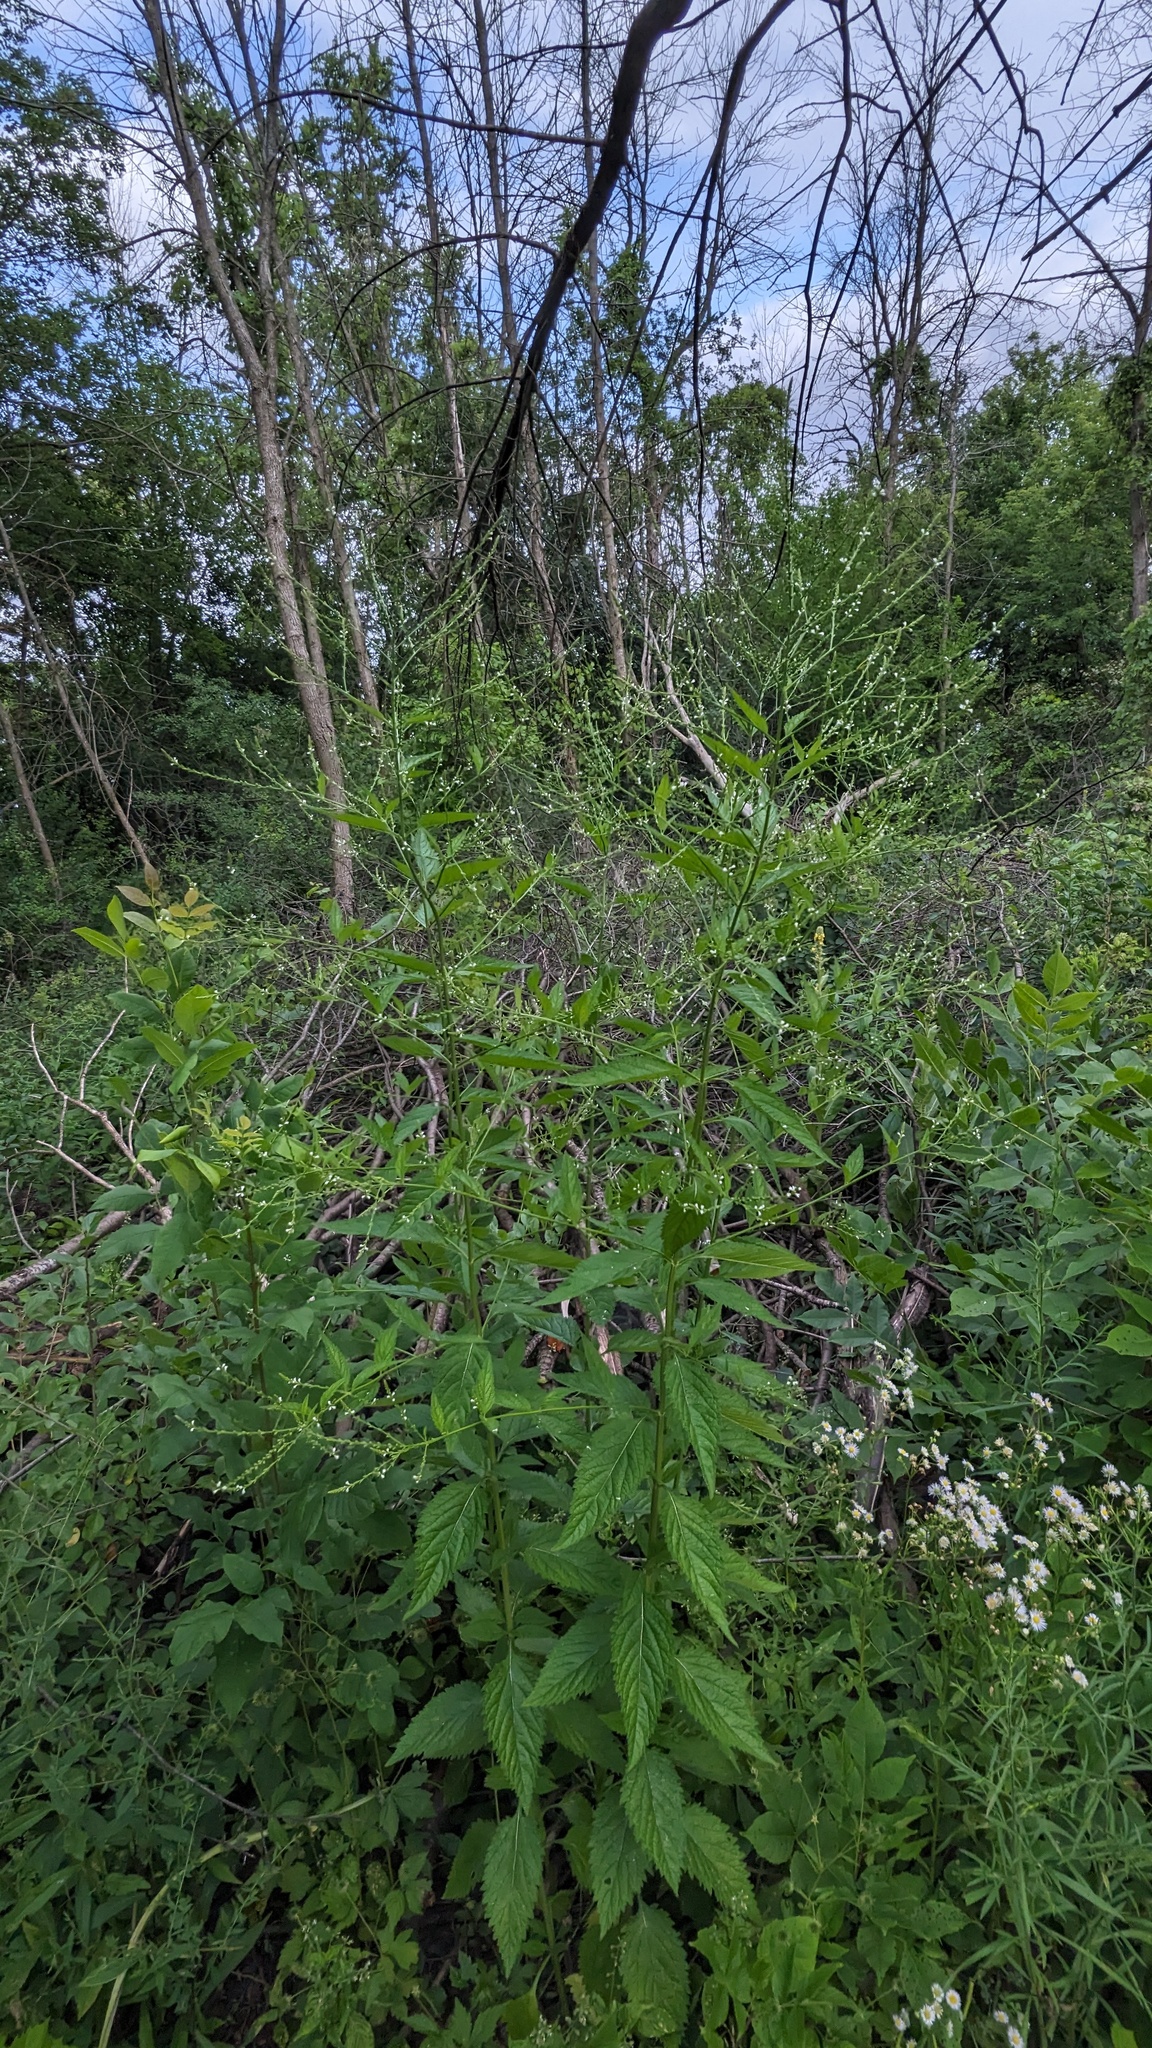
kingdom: Plantae
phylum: Tracheophyta
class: Magnoliopsida
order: Lamiales
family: Verbenaceae
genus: Verbena
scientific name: Verbena urticifolia
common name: Nettle-leaved vervain
